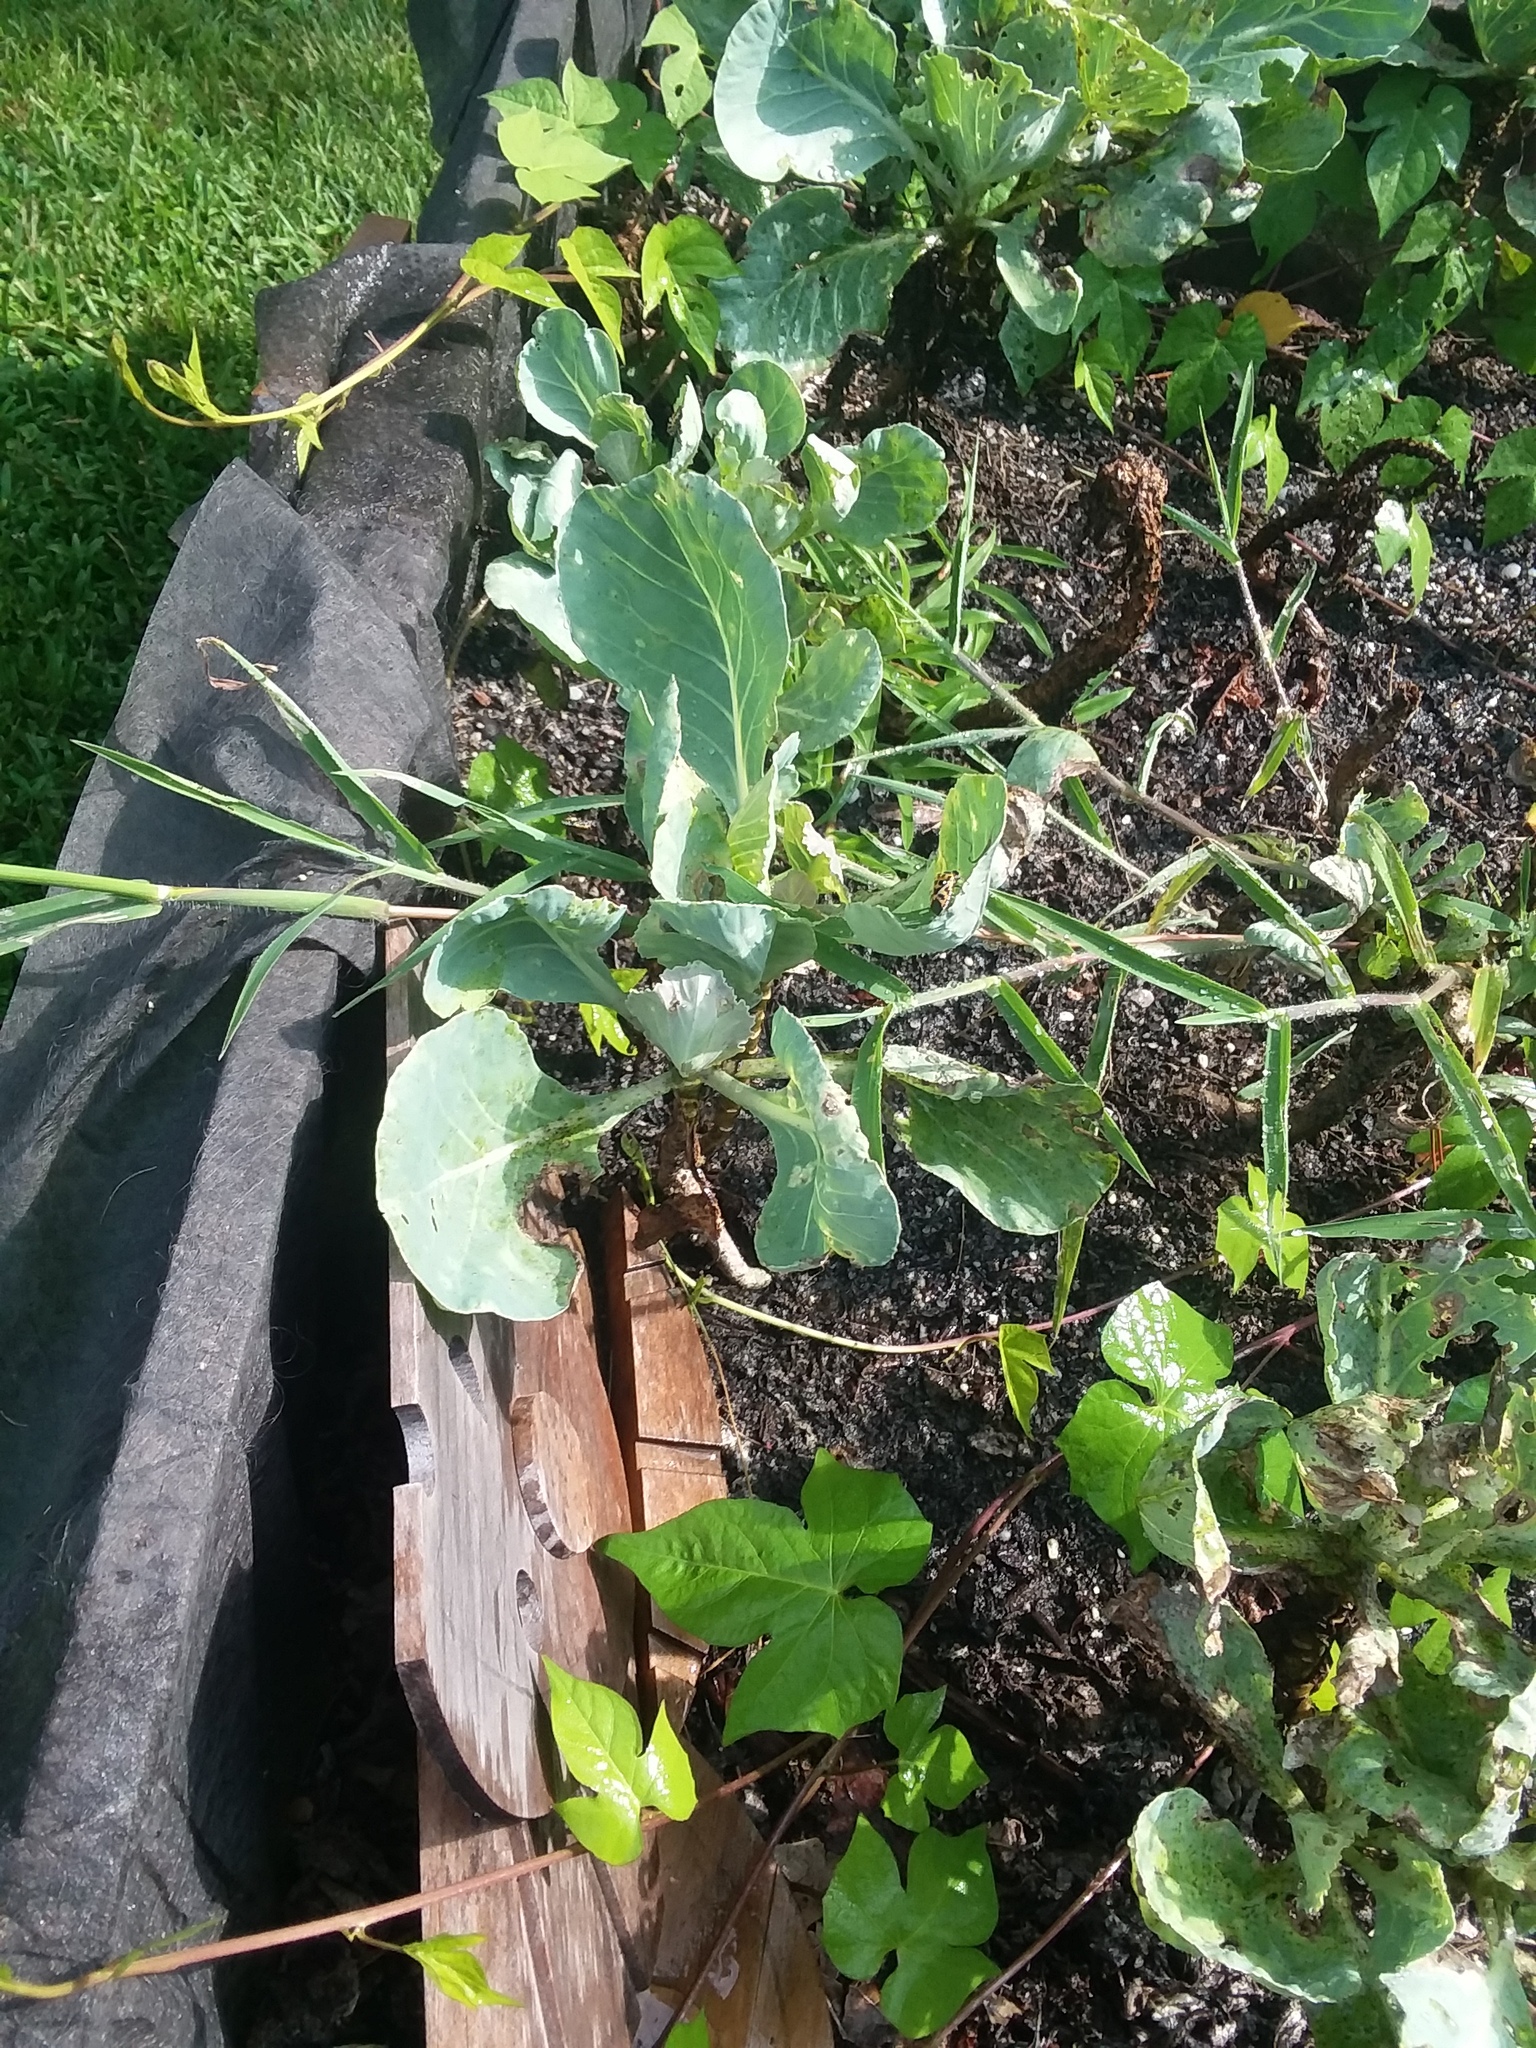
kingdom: Animalia
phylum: Arthropoda
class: Insecta
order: Hemiptera
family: Pentatomidae
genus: Murgantia
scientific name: Murgantia histrionica
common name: Harlequin bug
